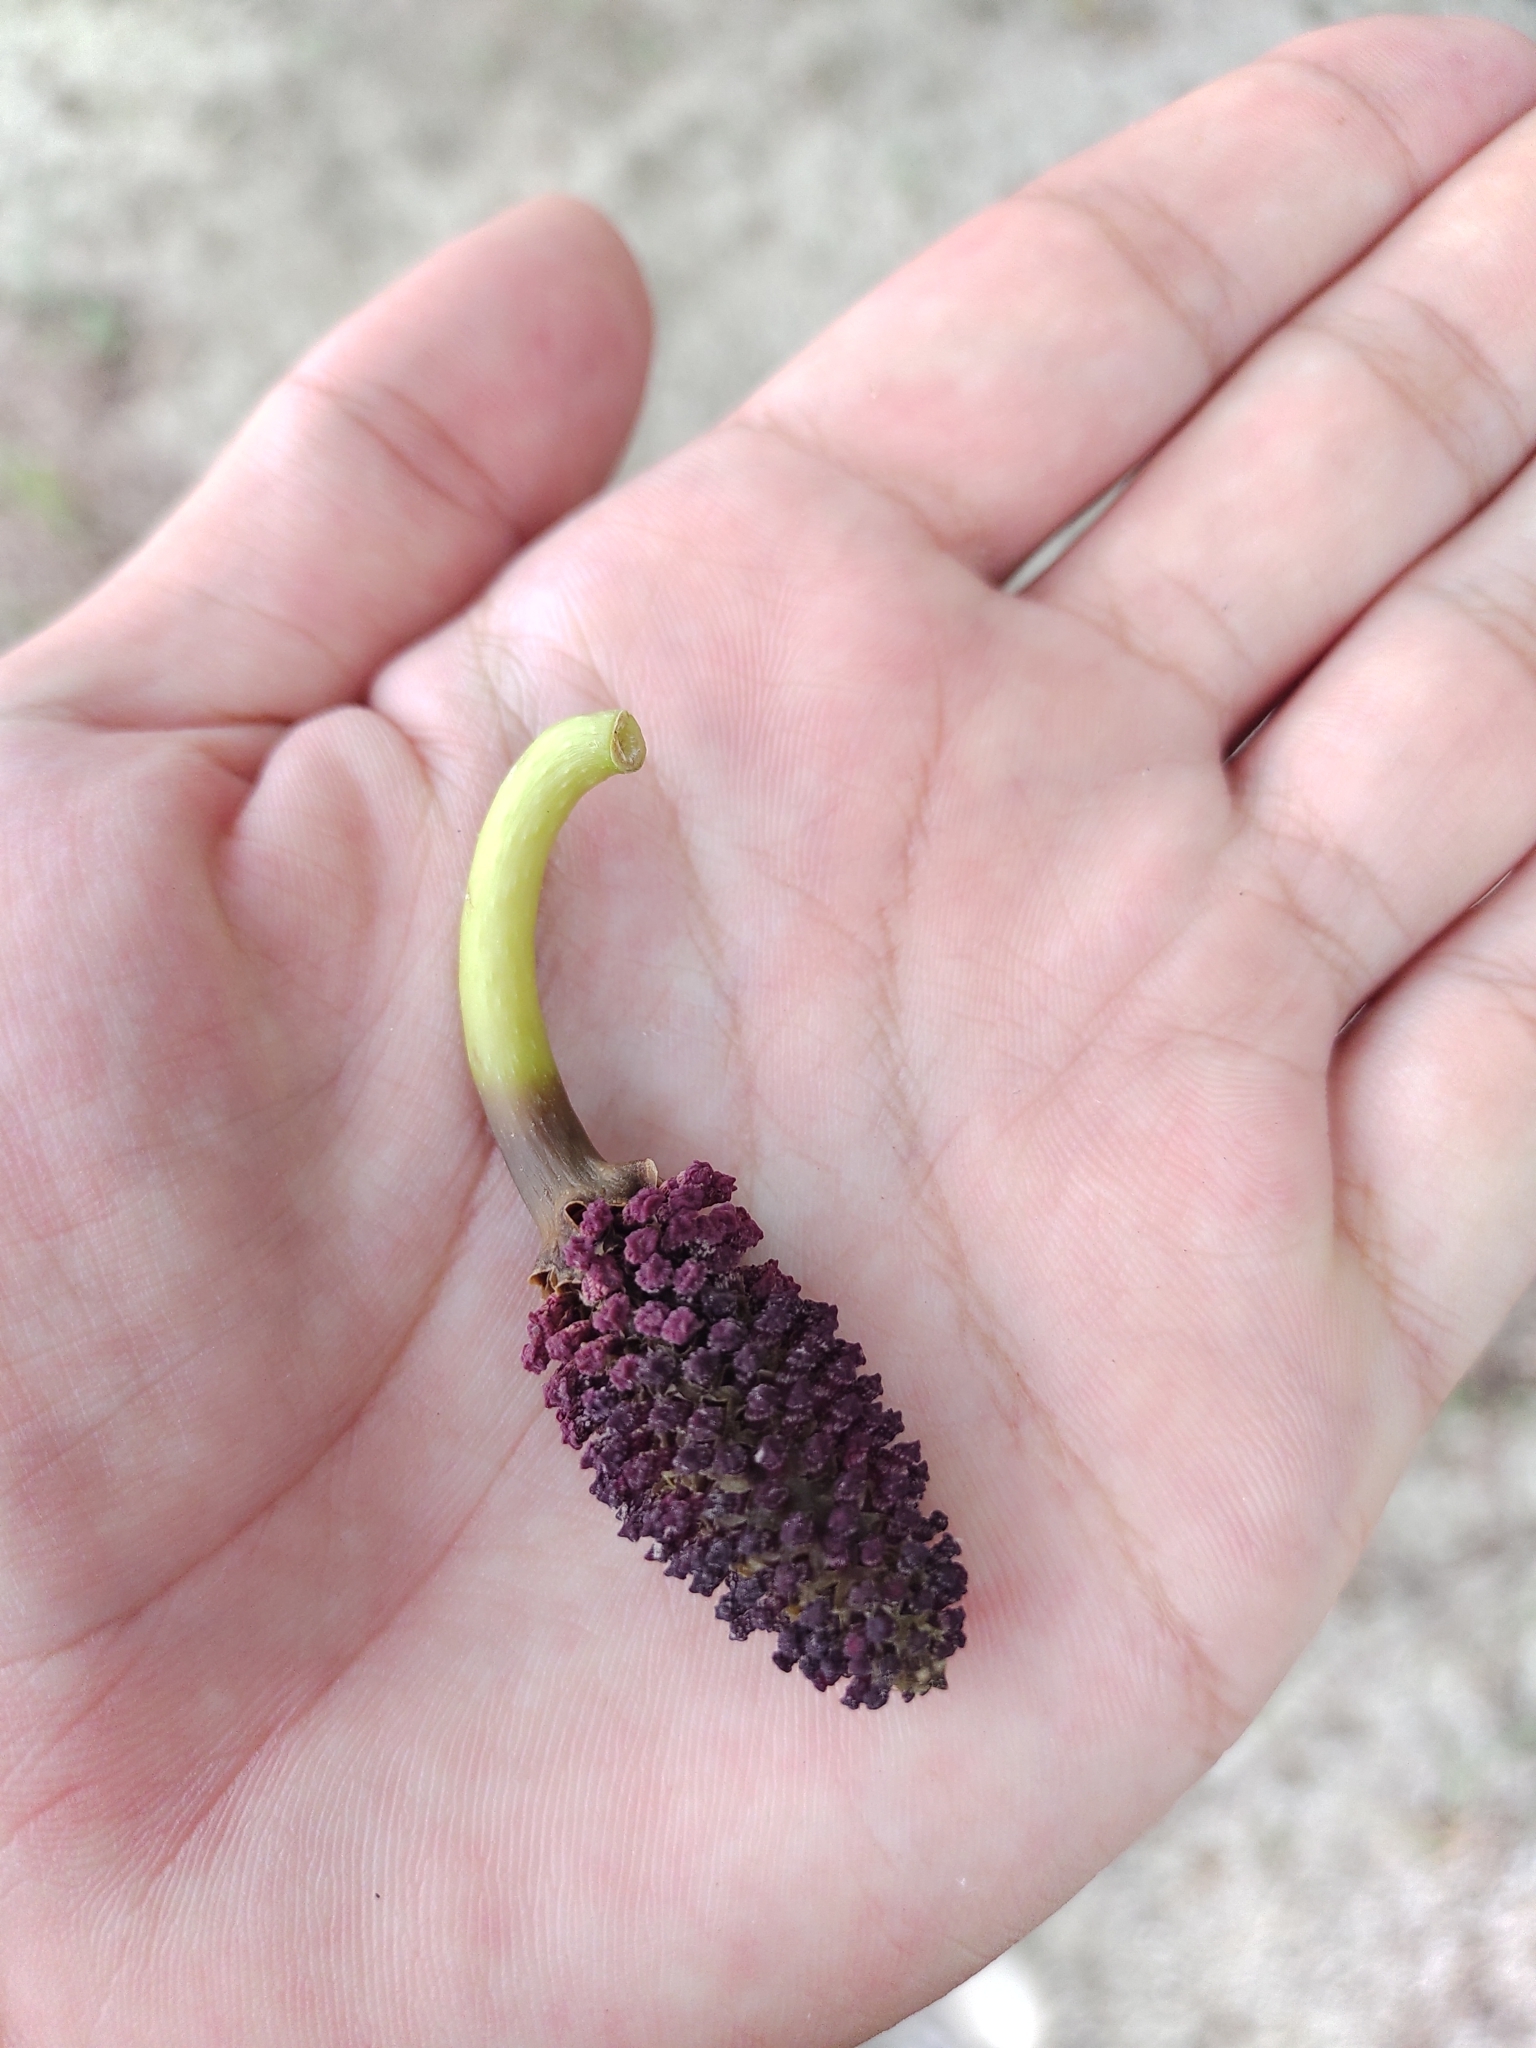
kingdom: Plantae
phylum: Tracheophyta
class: Magnoliopsida
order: Malpighiales
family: Euphorbiaceae
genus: Hura
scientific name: Hura crepitans
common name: Sandboxtree
